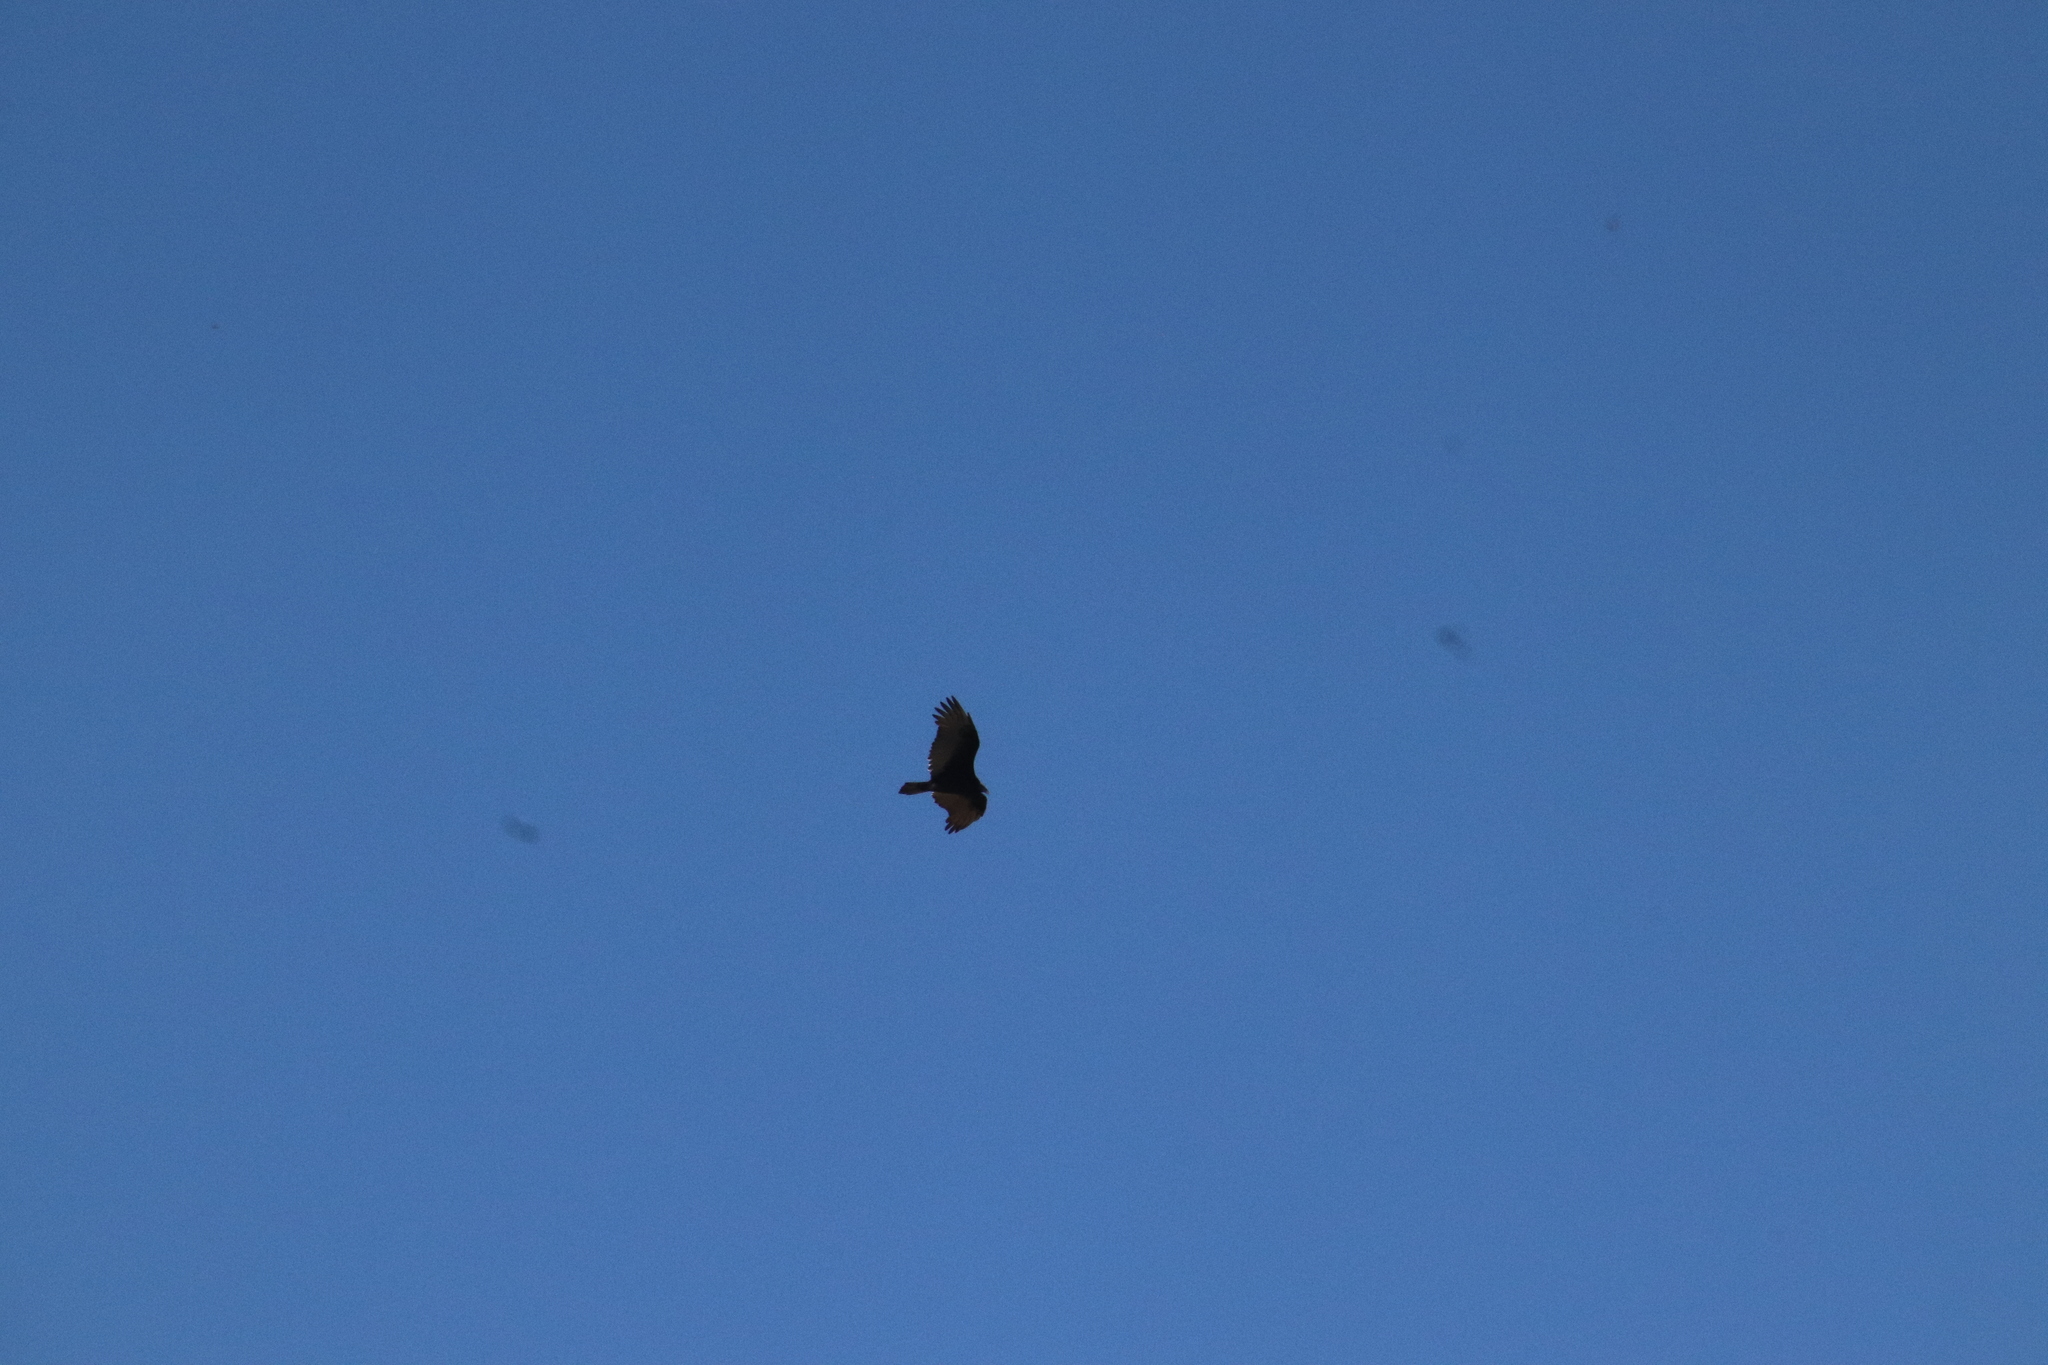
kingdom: Animalia
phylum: Chordata
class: Aves
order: Accipitriformes
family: Cathartidae
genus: Cathartes
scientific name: Cathartes aura
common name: Turkey vulture
